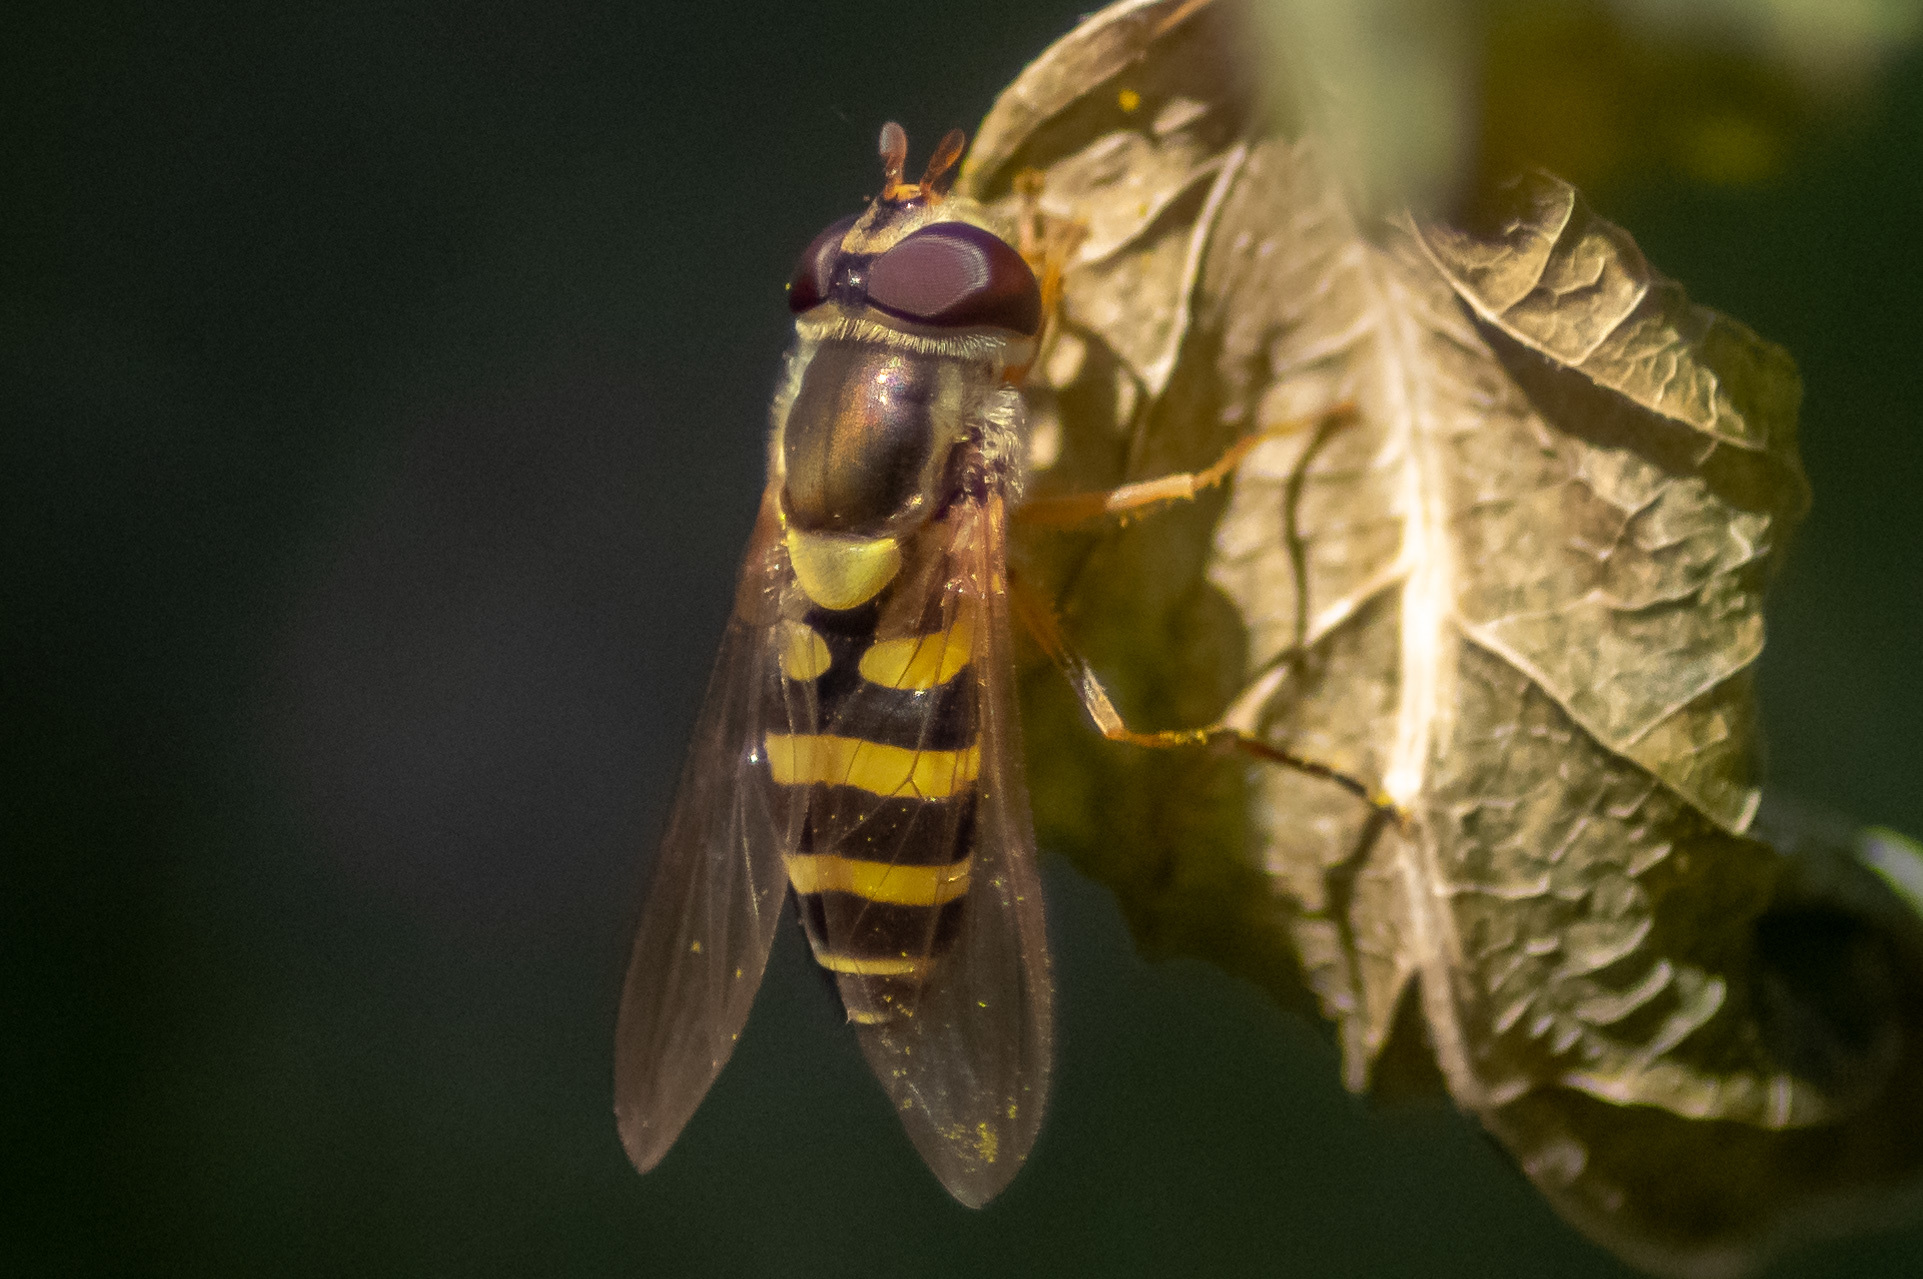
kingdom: Animalia
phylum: Arthropoda
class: Insecta
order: Diptera
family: Syrphidae
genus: Syrphus
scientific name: Syrphus rectus
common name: Yellow-legged flower fly
